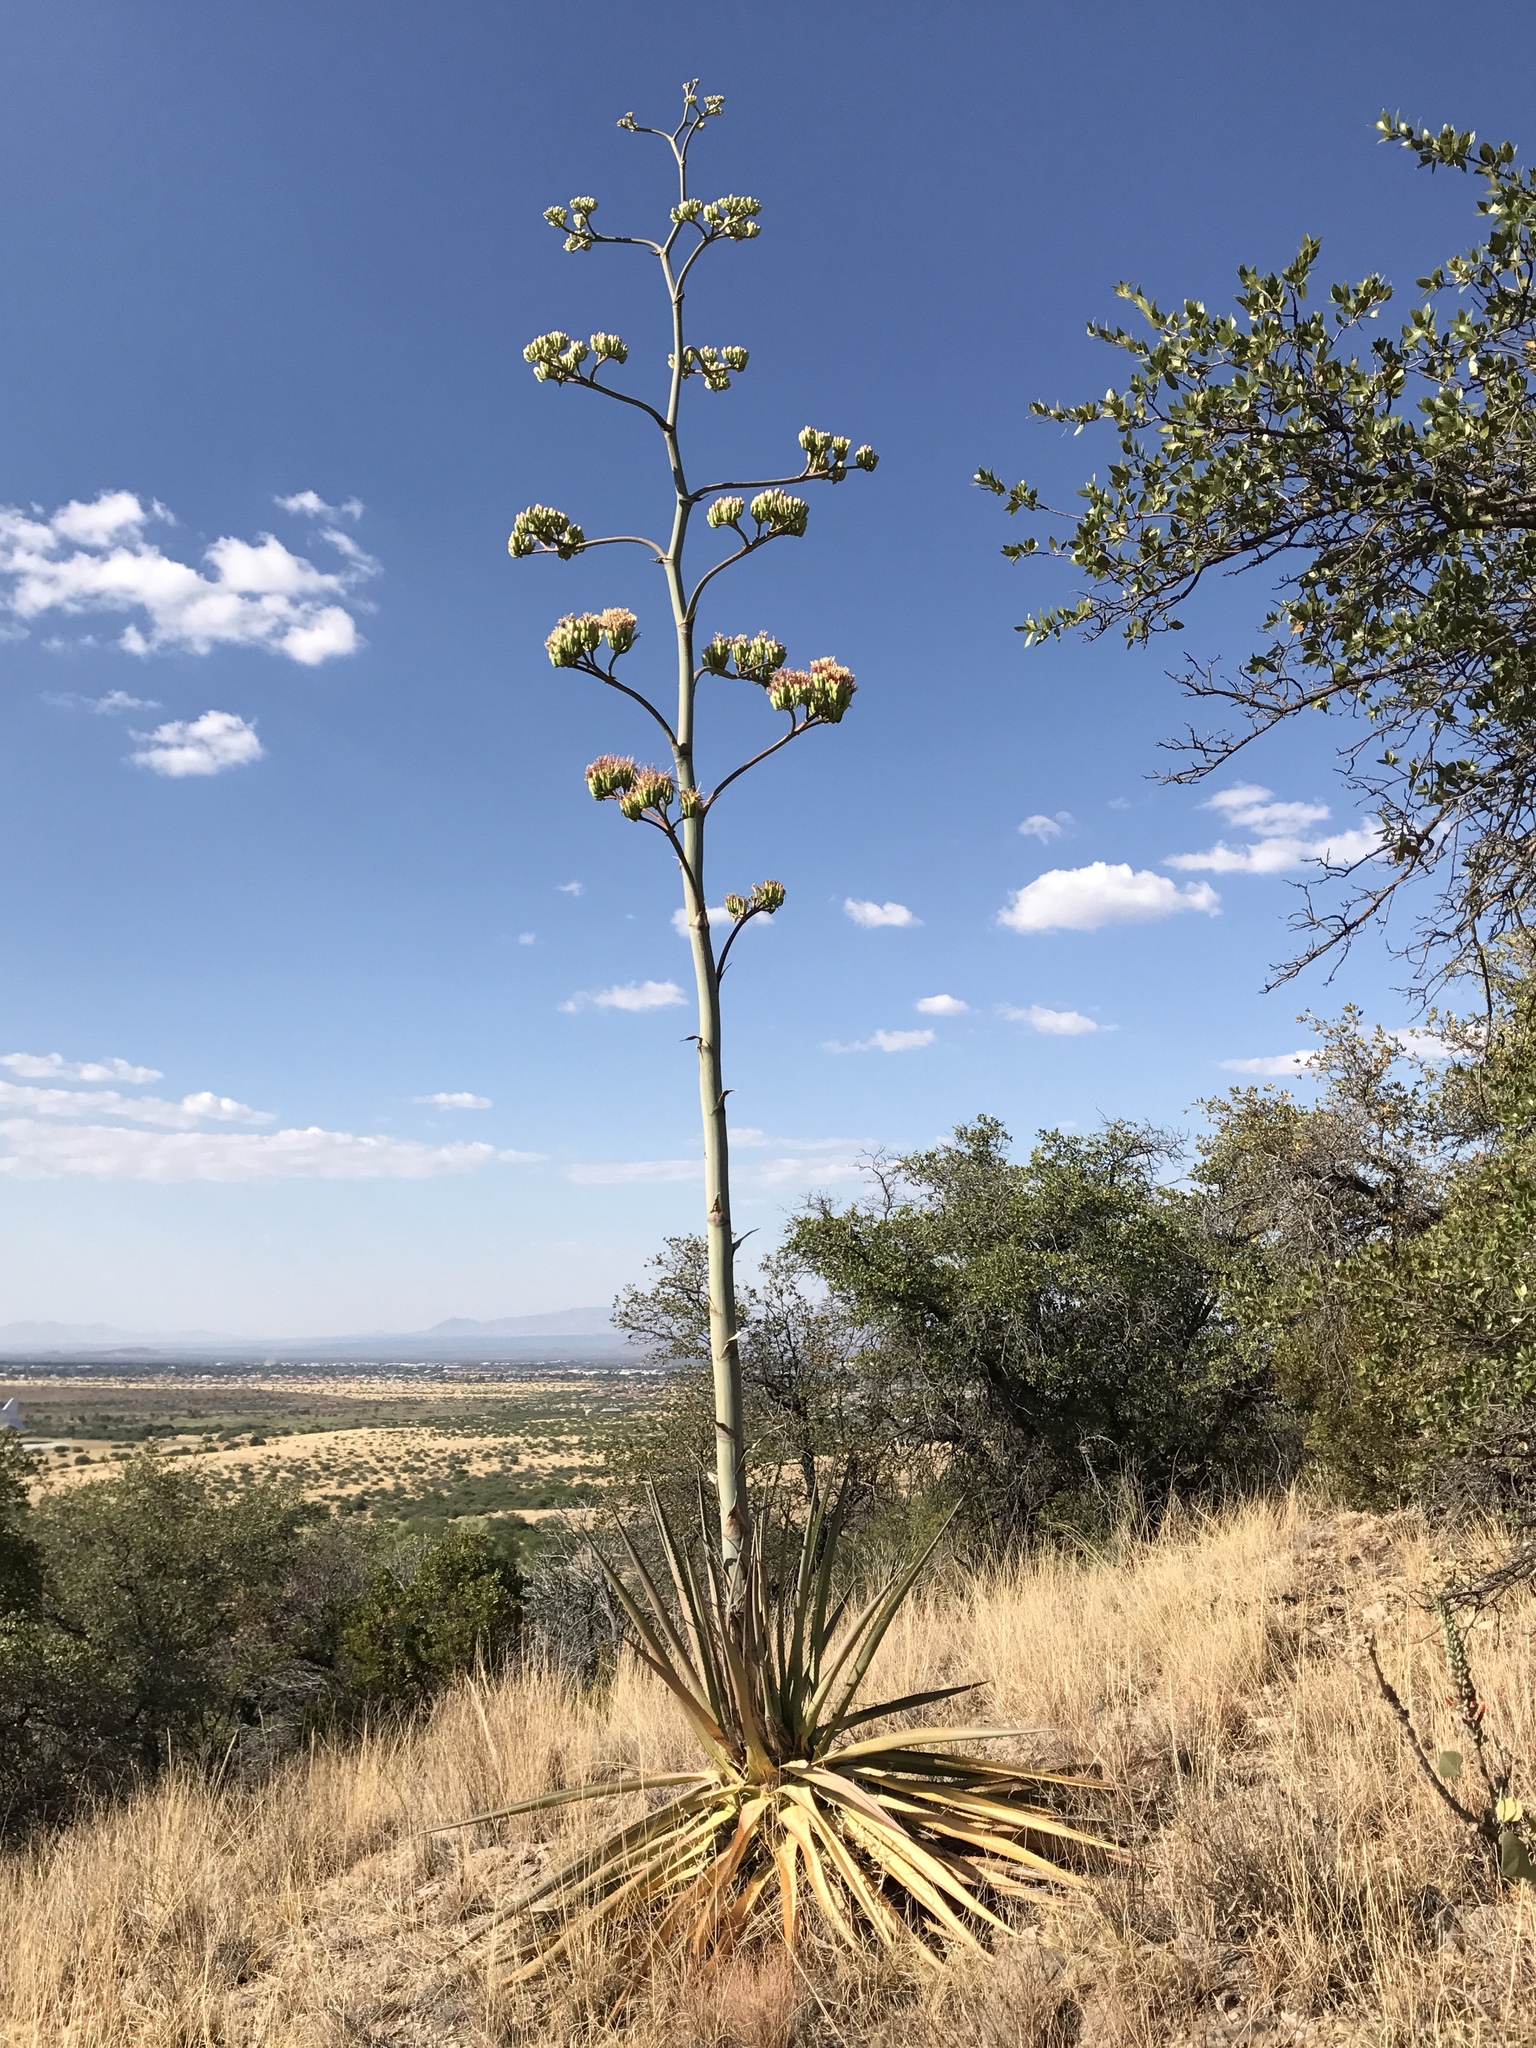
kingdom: Plantae
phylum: Tracheophyta
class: Liliopsida
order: Asparagales
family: Asparagaceae
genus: Agave
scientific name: Agave palmeri
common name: Palmer agave
